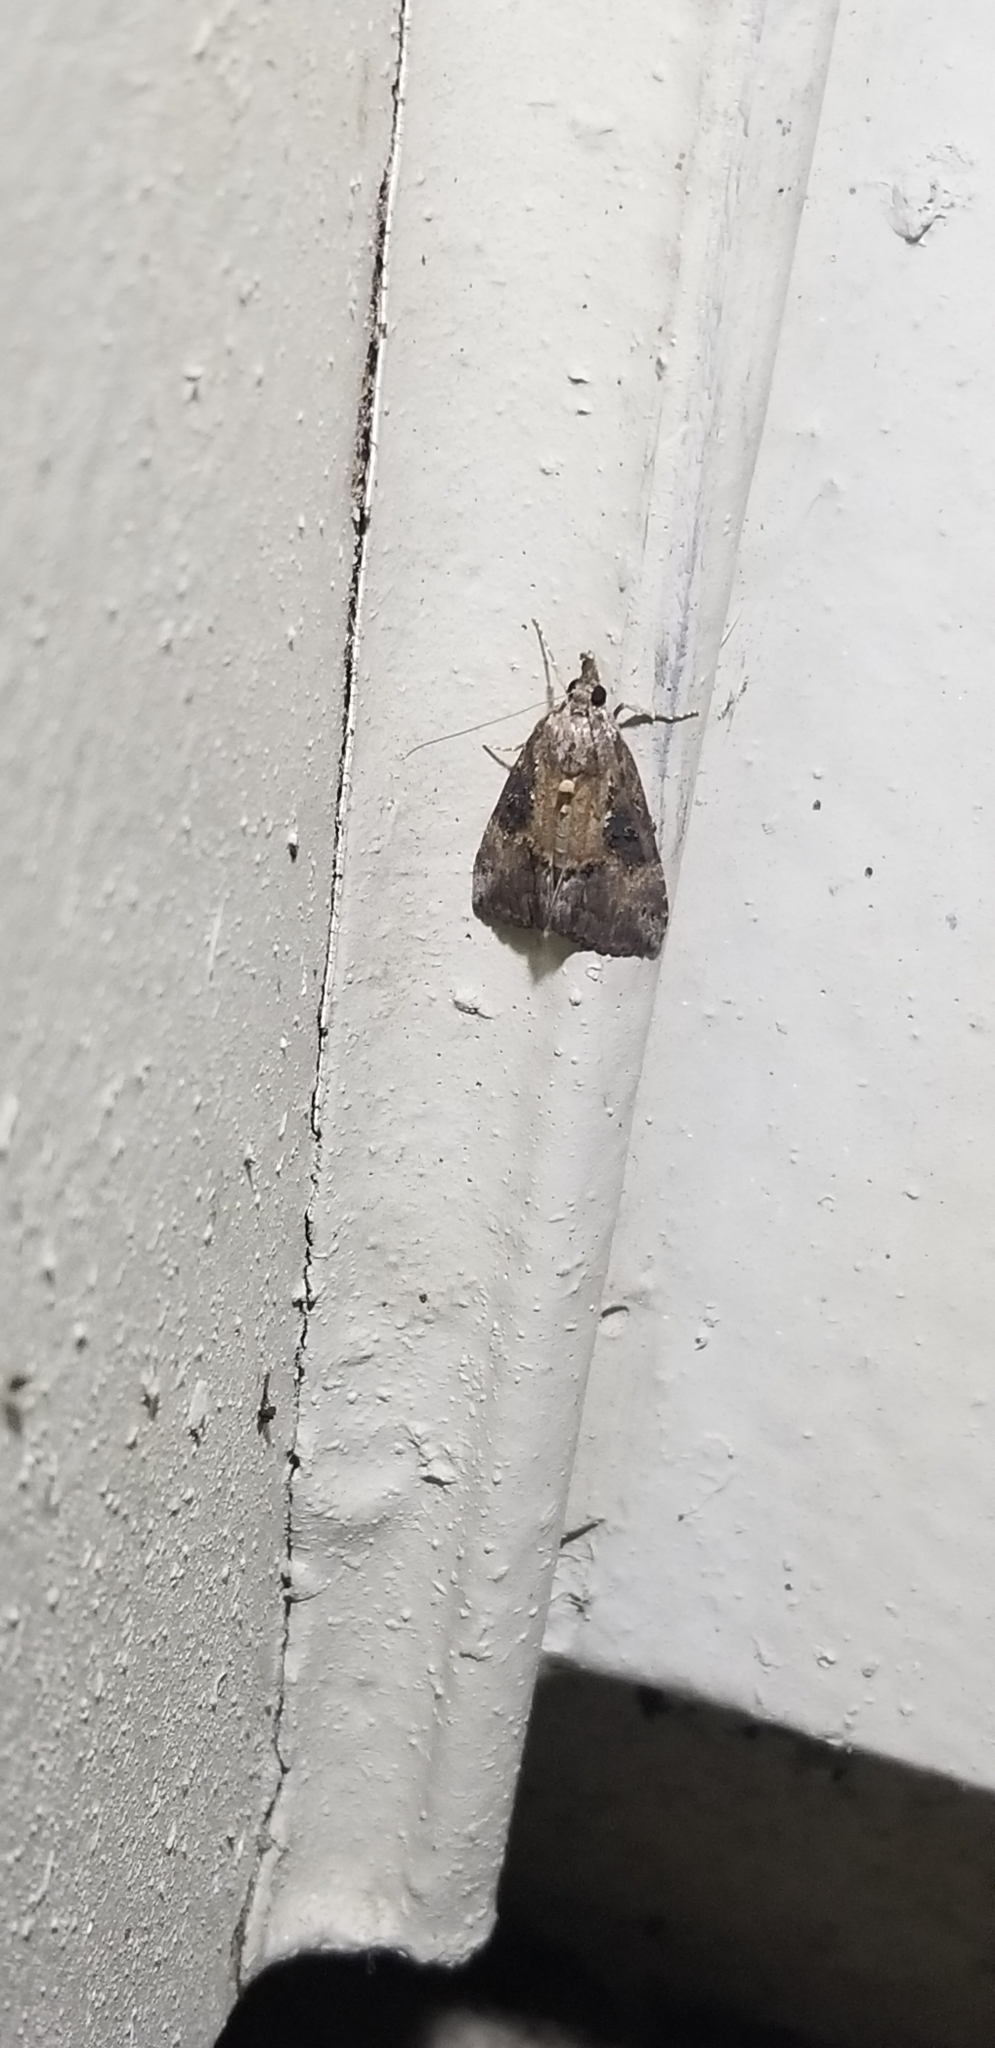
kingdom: Animalia
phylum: Arthropoda
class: Insecta
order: Lepidoptera
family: Erebidae
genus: Hypena
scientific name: Hypena scabra
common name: Green cloverworm
